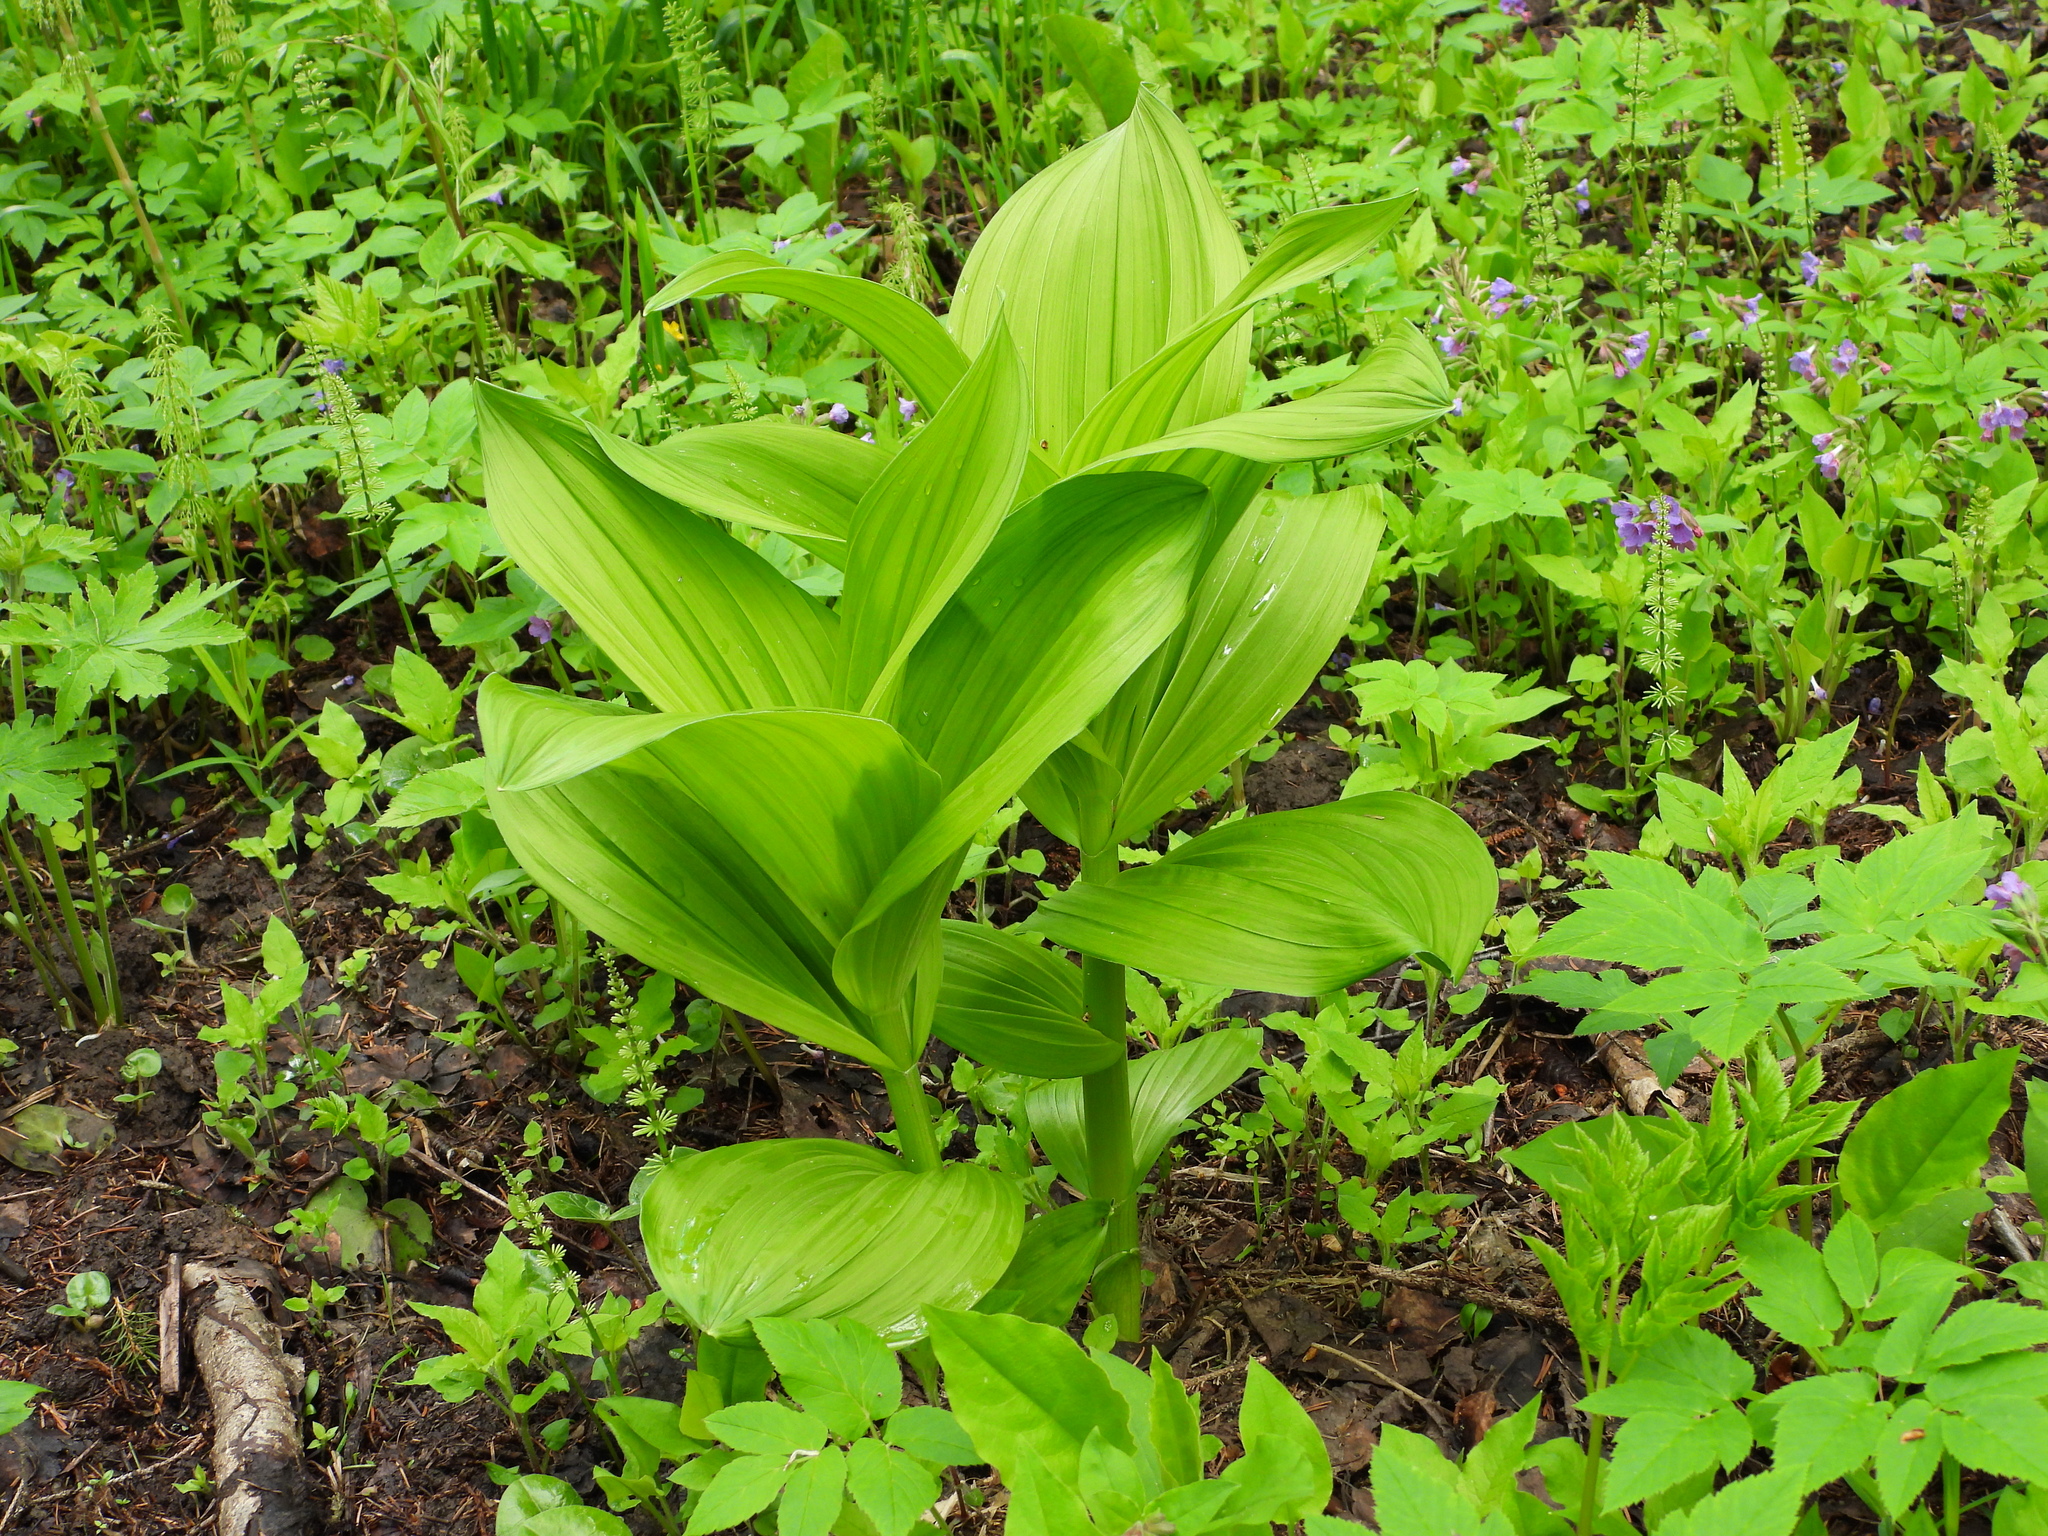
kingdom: Plantae
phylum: Tracheophyta
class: Liliopsida
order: Liliales
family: Melanthiaceae
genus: Veratrum
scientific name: Veratrum lobelianum
